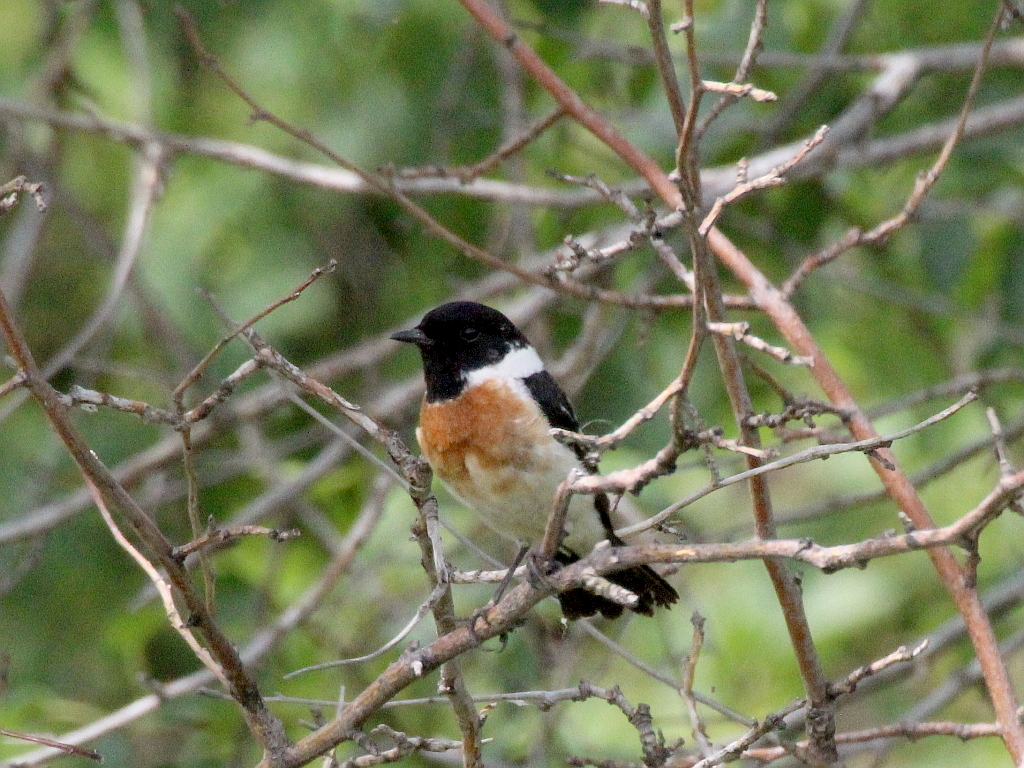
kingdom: Animalia
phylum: Chordata
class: Aves
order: Passeriformes
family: Muscicapidae
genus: Saxicola
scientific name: Saxicola maurus
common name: Siberian stonechat
